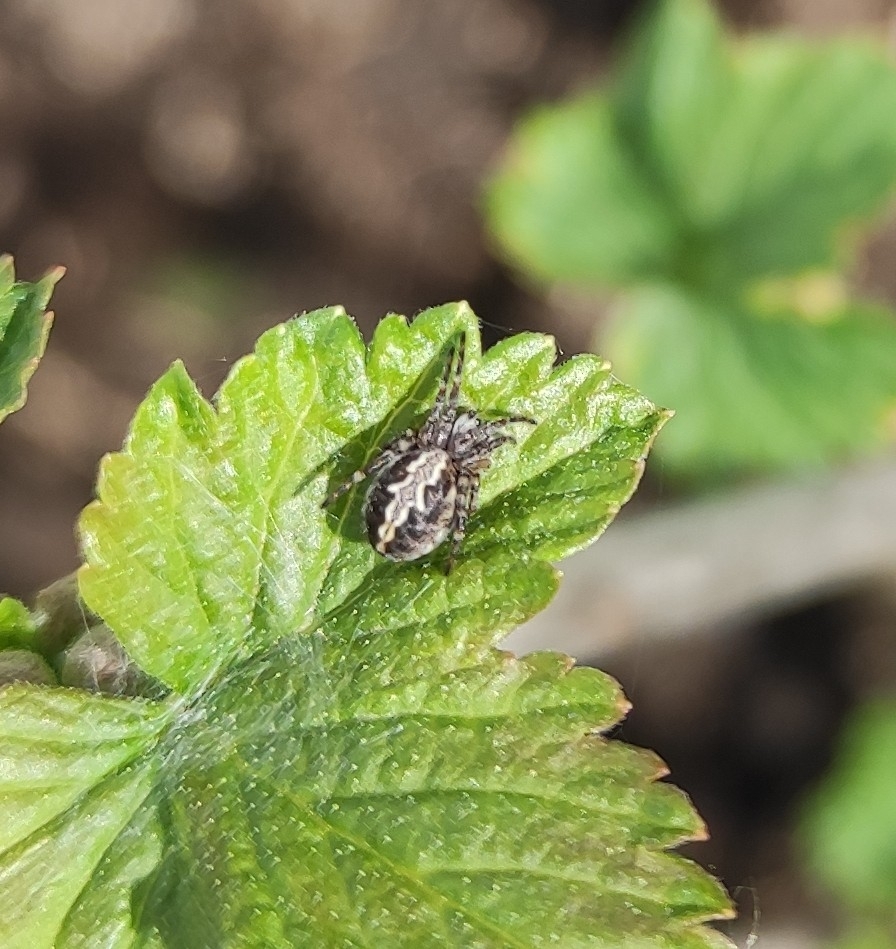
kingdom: Animalia
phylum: Arthropoda
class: Arachnida
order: Araneae
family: Araneidae
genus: Aculepeira
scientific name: Aculepeira ceropegia
